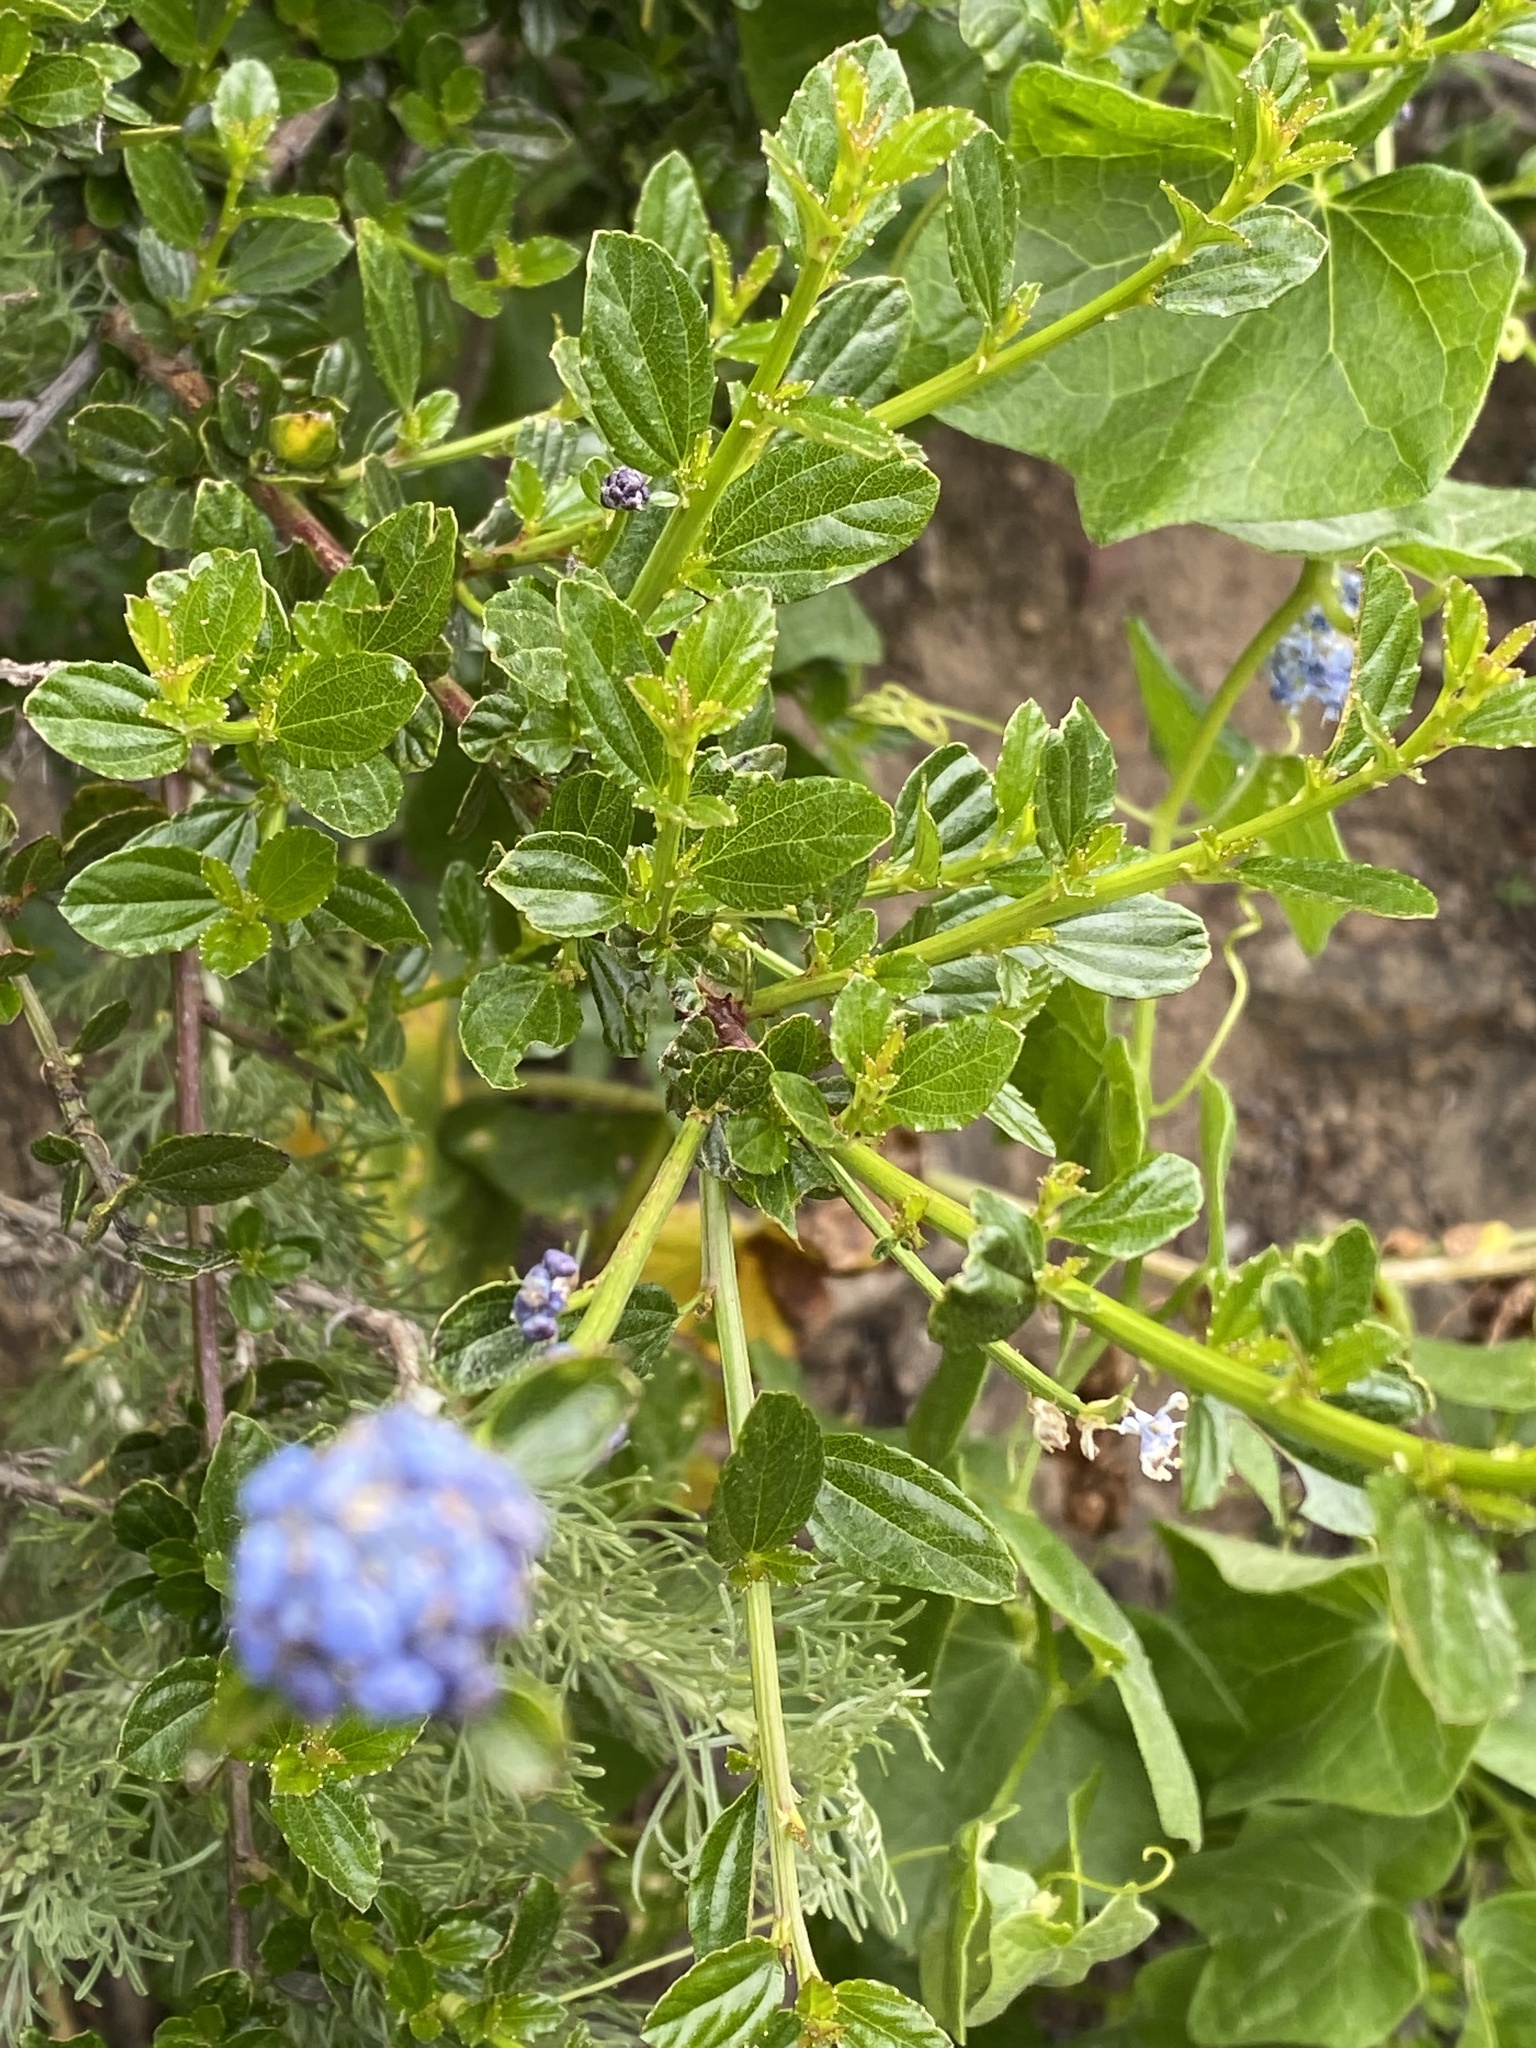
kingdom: Plantae
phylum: Tracheophyta
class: Magnoliopsida
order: Rosales
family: Rhamnaceae
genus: Ceanothus
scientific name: Ceanothus thyrsiflorus
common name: California-lilac
